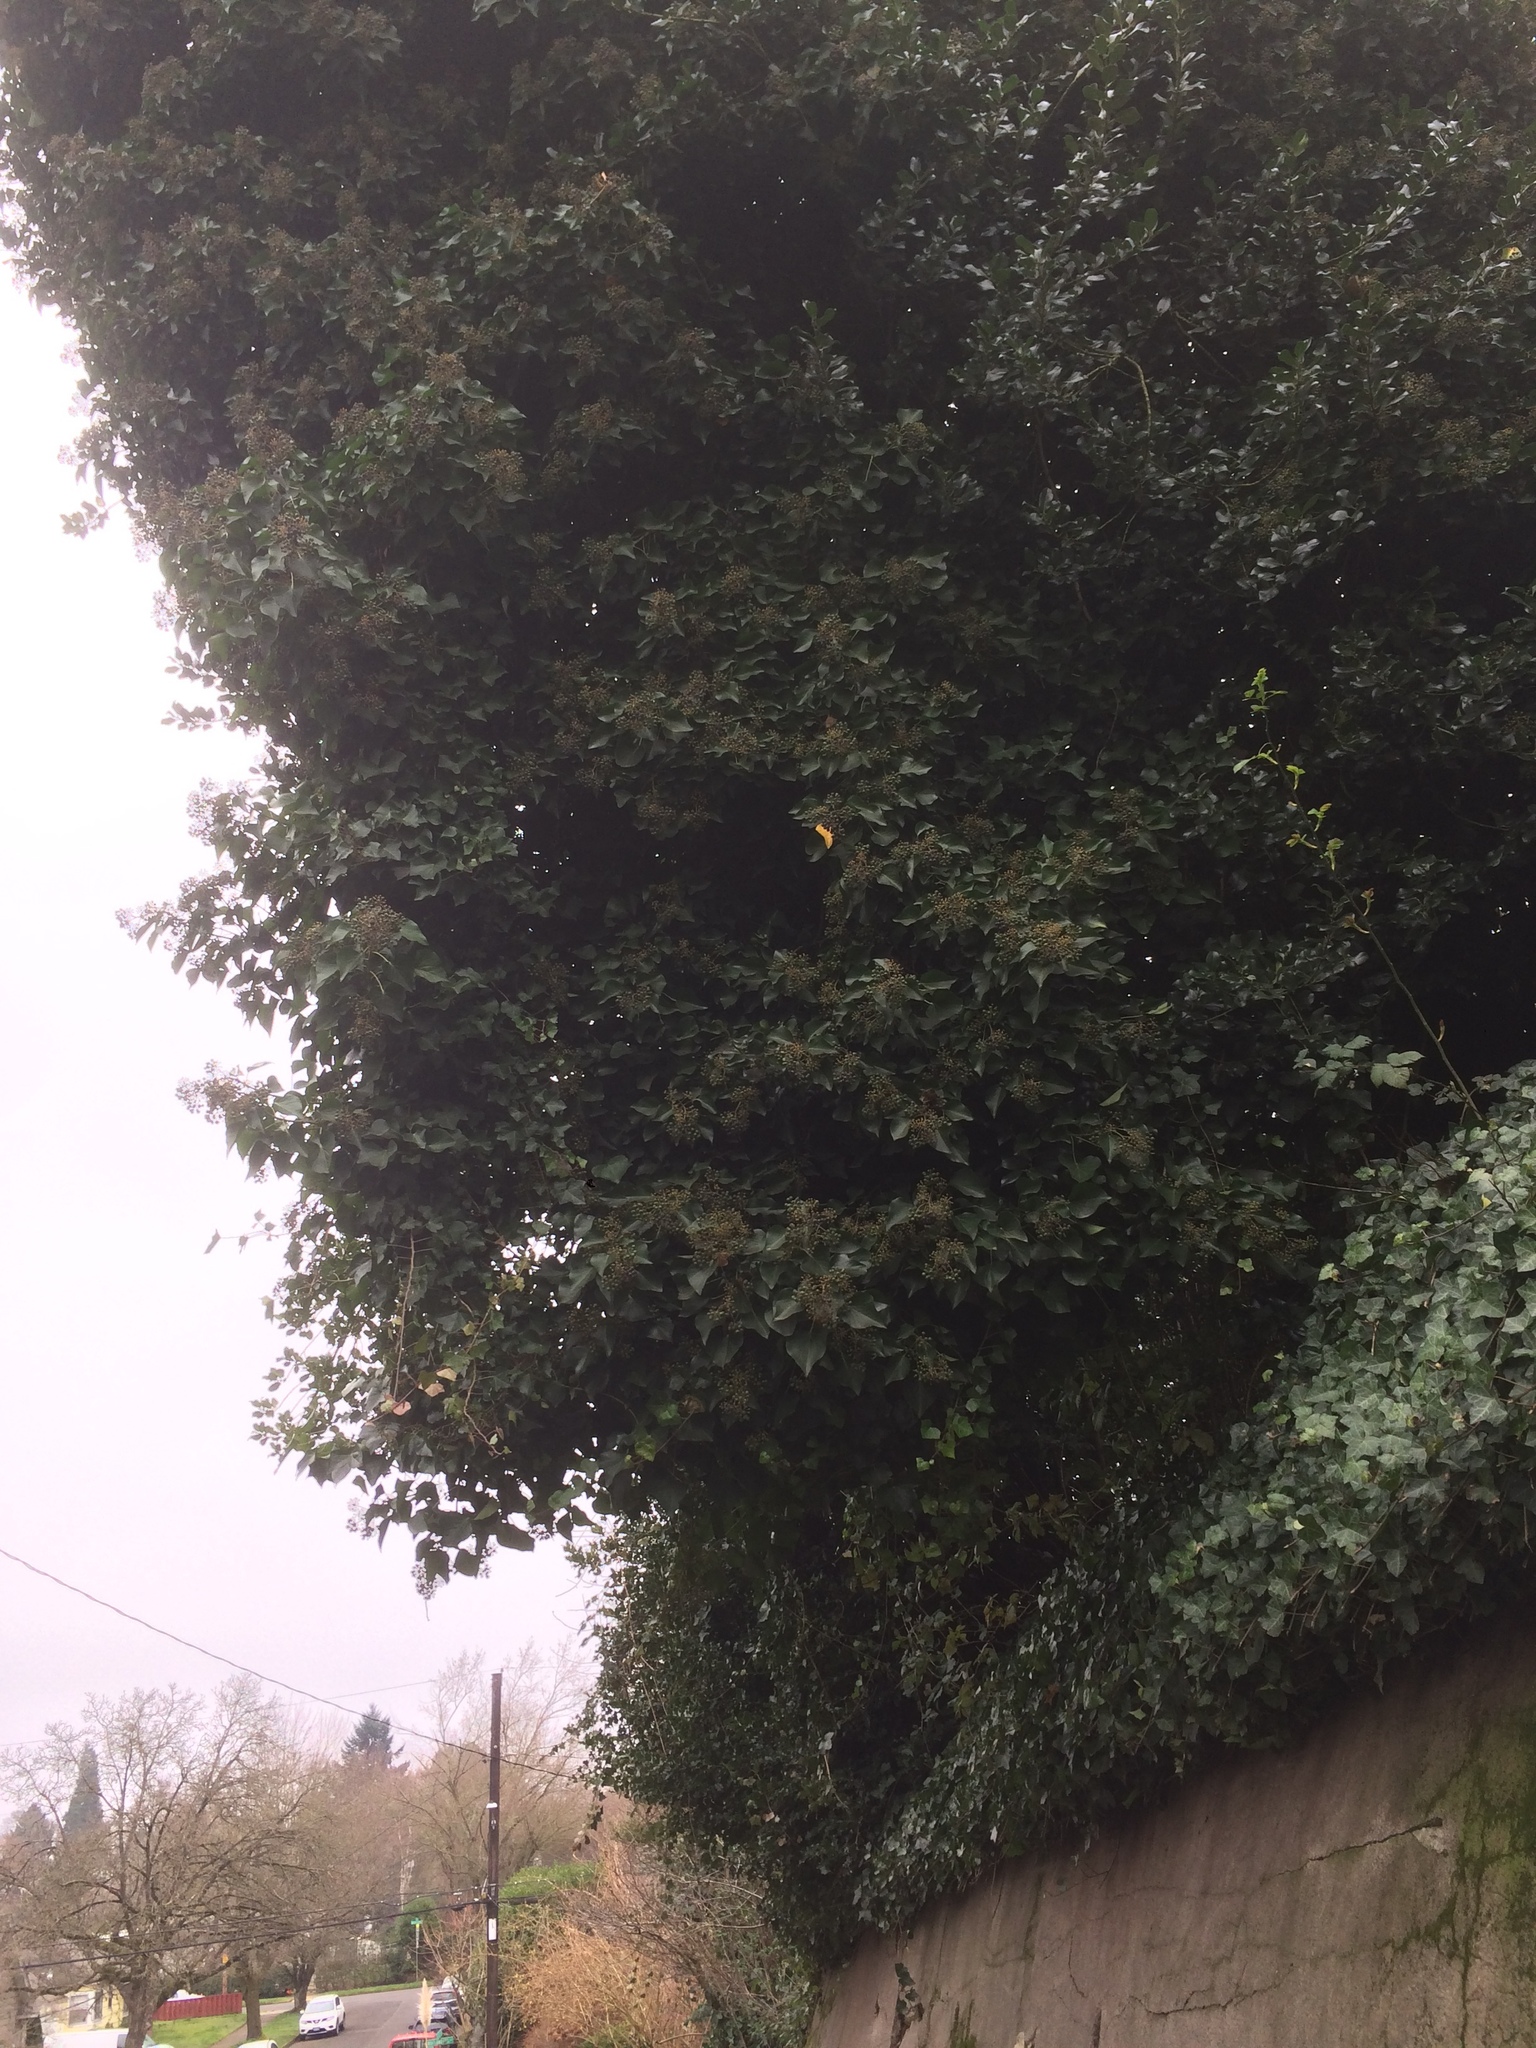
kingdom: Plantae
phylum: Tracheophyta
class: Magnoliopsida
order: Apiales
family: Araliaceae
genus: Hedera
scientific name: Hedera helix
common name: Ivy
